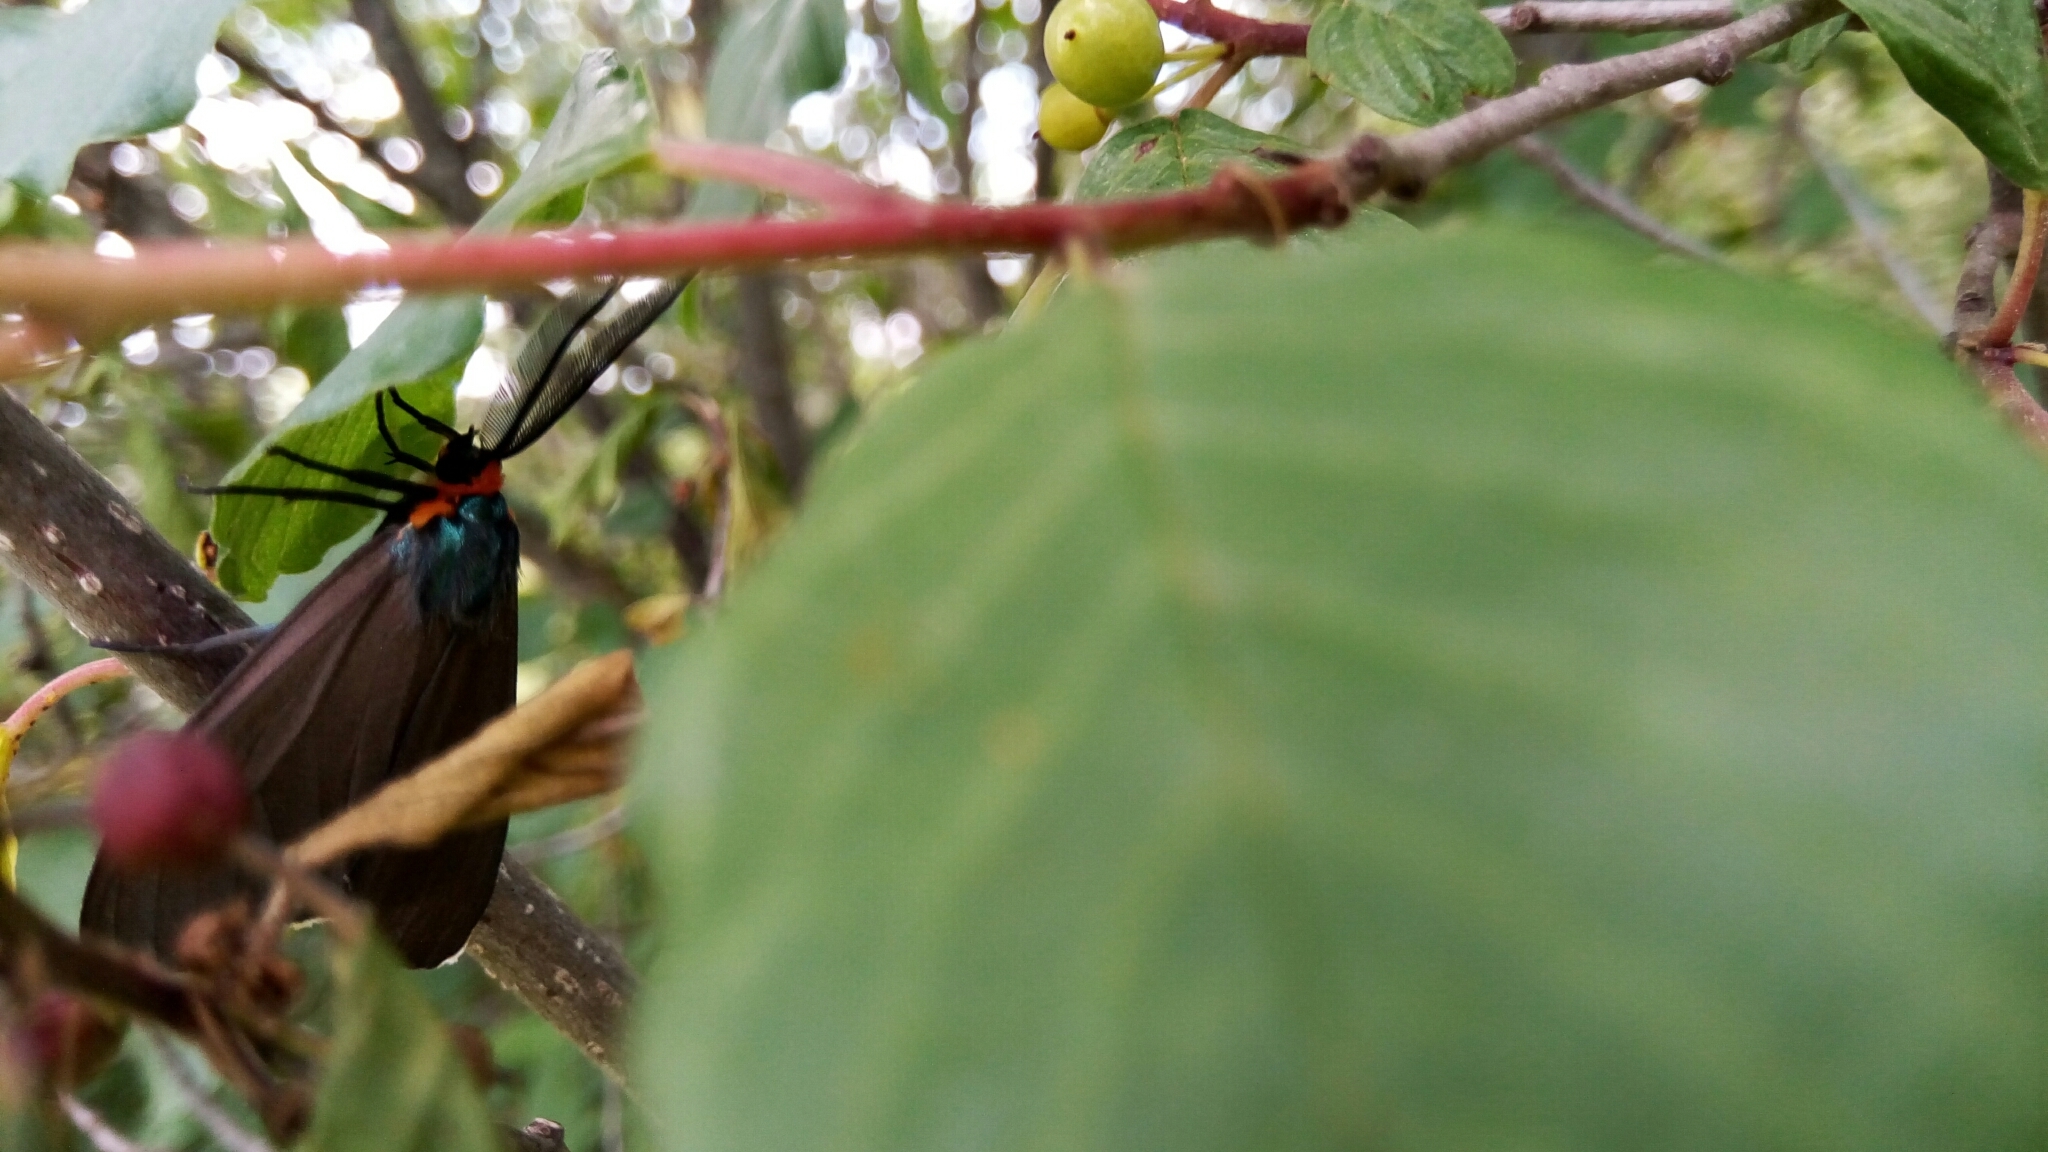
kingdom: Animalia
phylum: Arthropoda
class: Insecta
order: Lepidoptera
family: Erebidae
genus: Ctenucha
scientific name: Ctenucha virginica
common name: Virginia ctenucha moth
